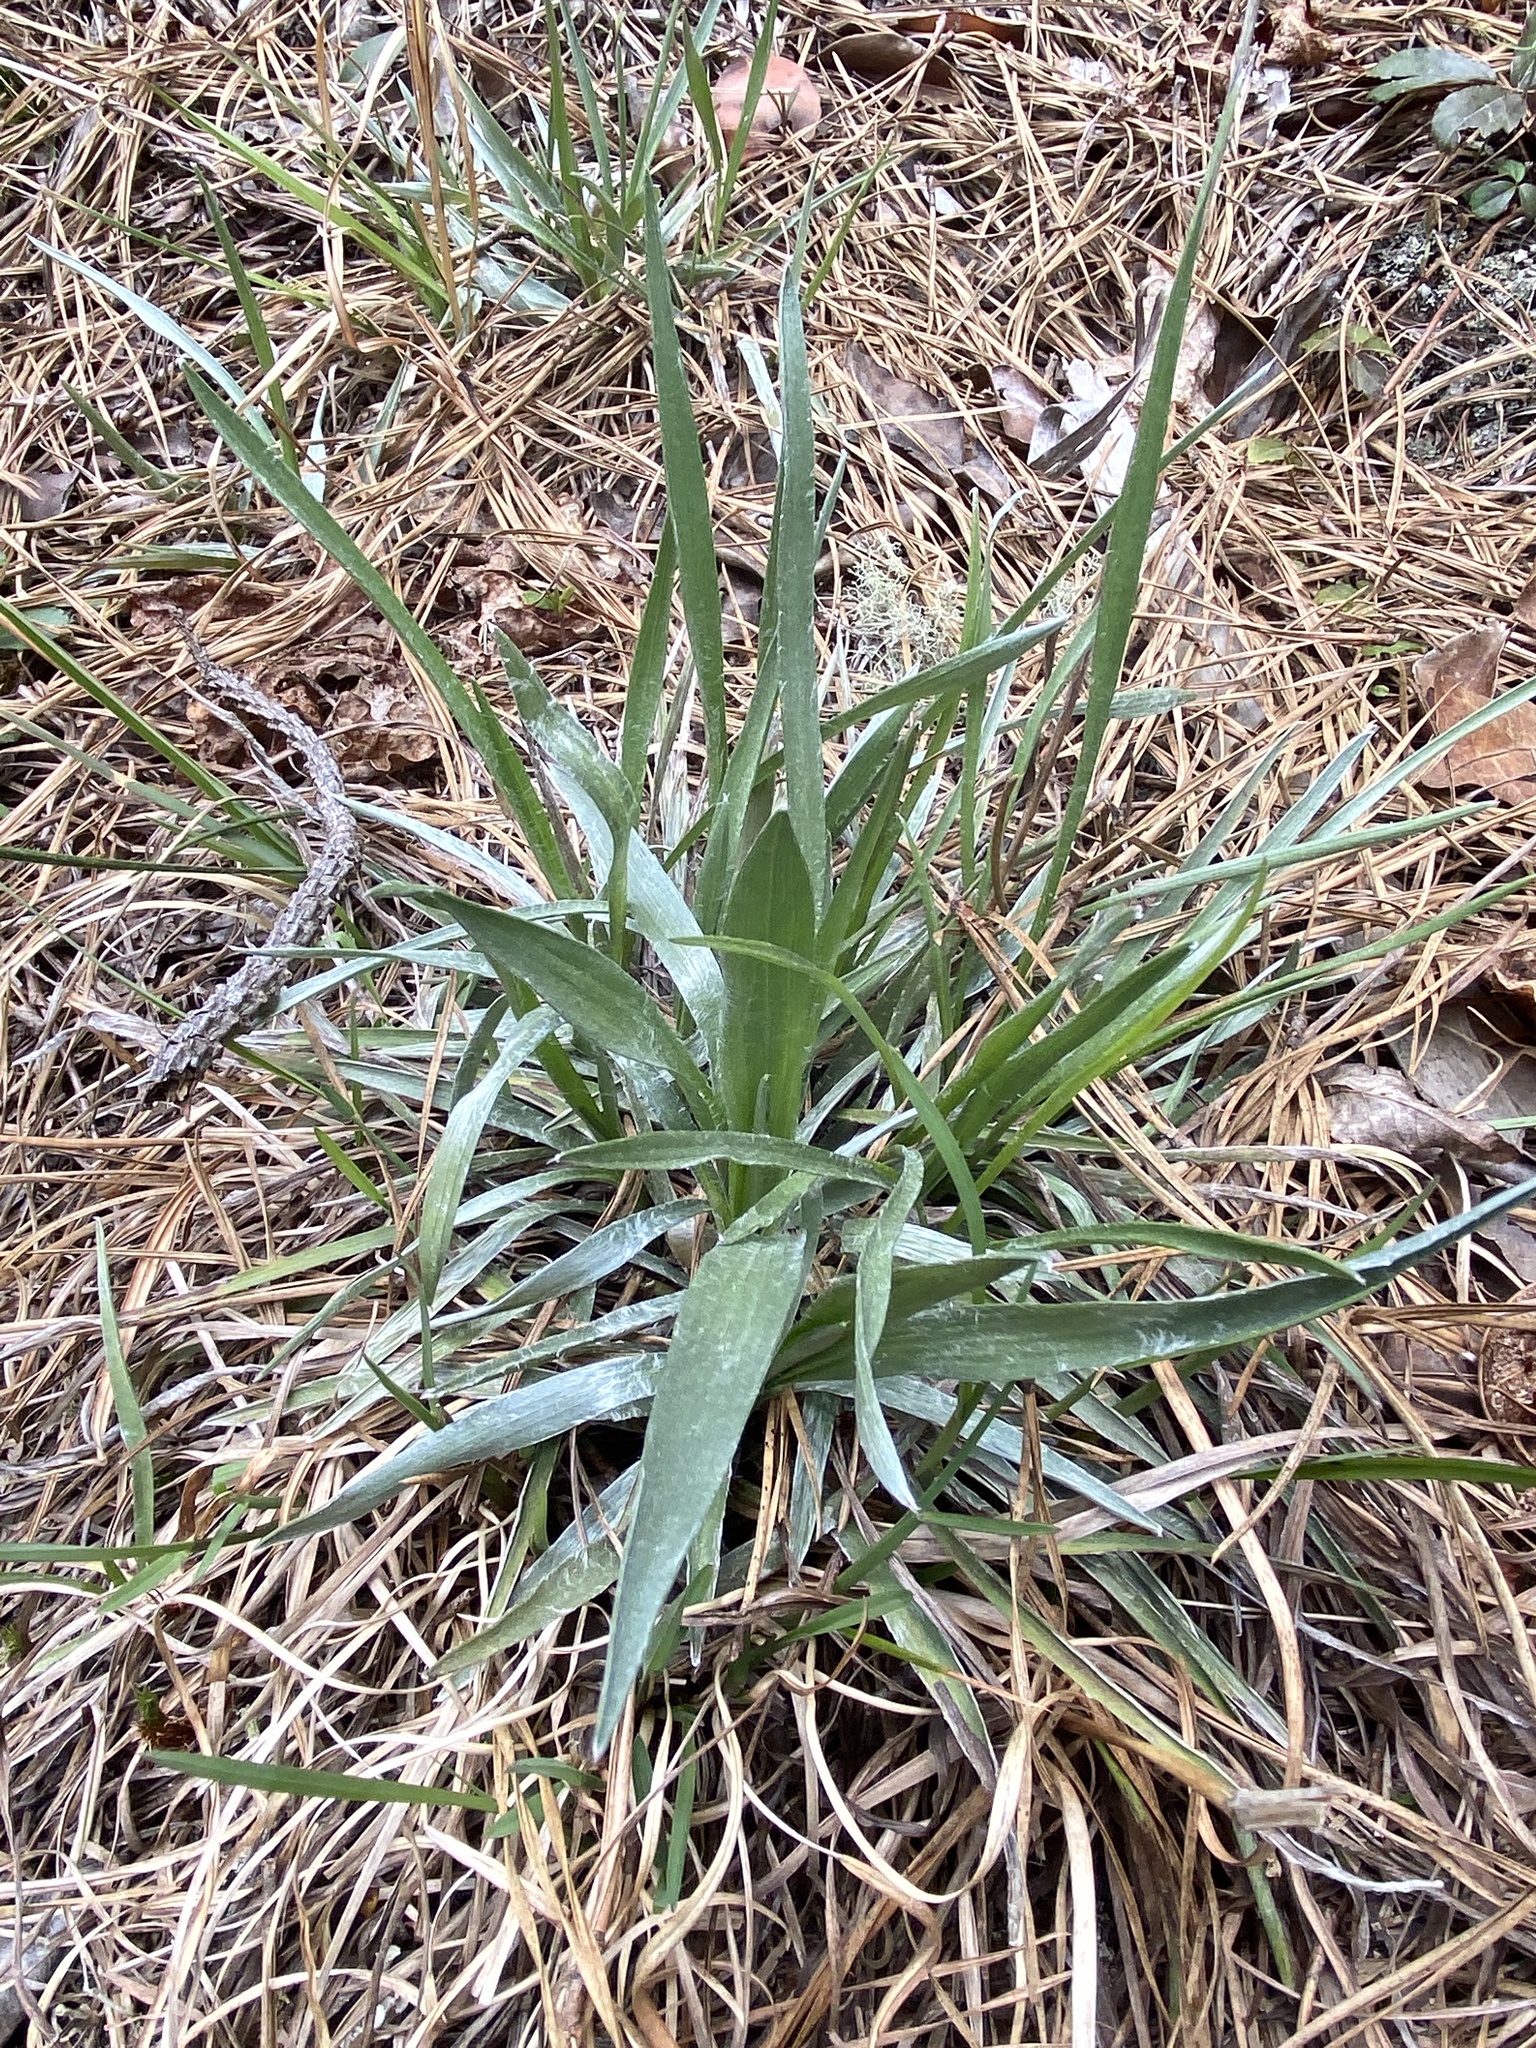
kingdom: Plantae
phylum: Tracheophyta
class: Magnoliopsida
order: Asterales
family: Asteraceae
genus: Pityopsis
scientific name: Pityopsis graminifolia
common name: Grass-leaf golden-aster
